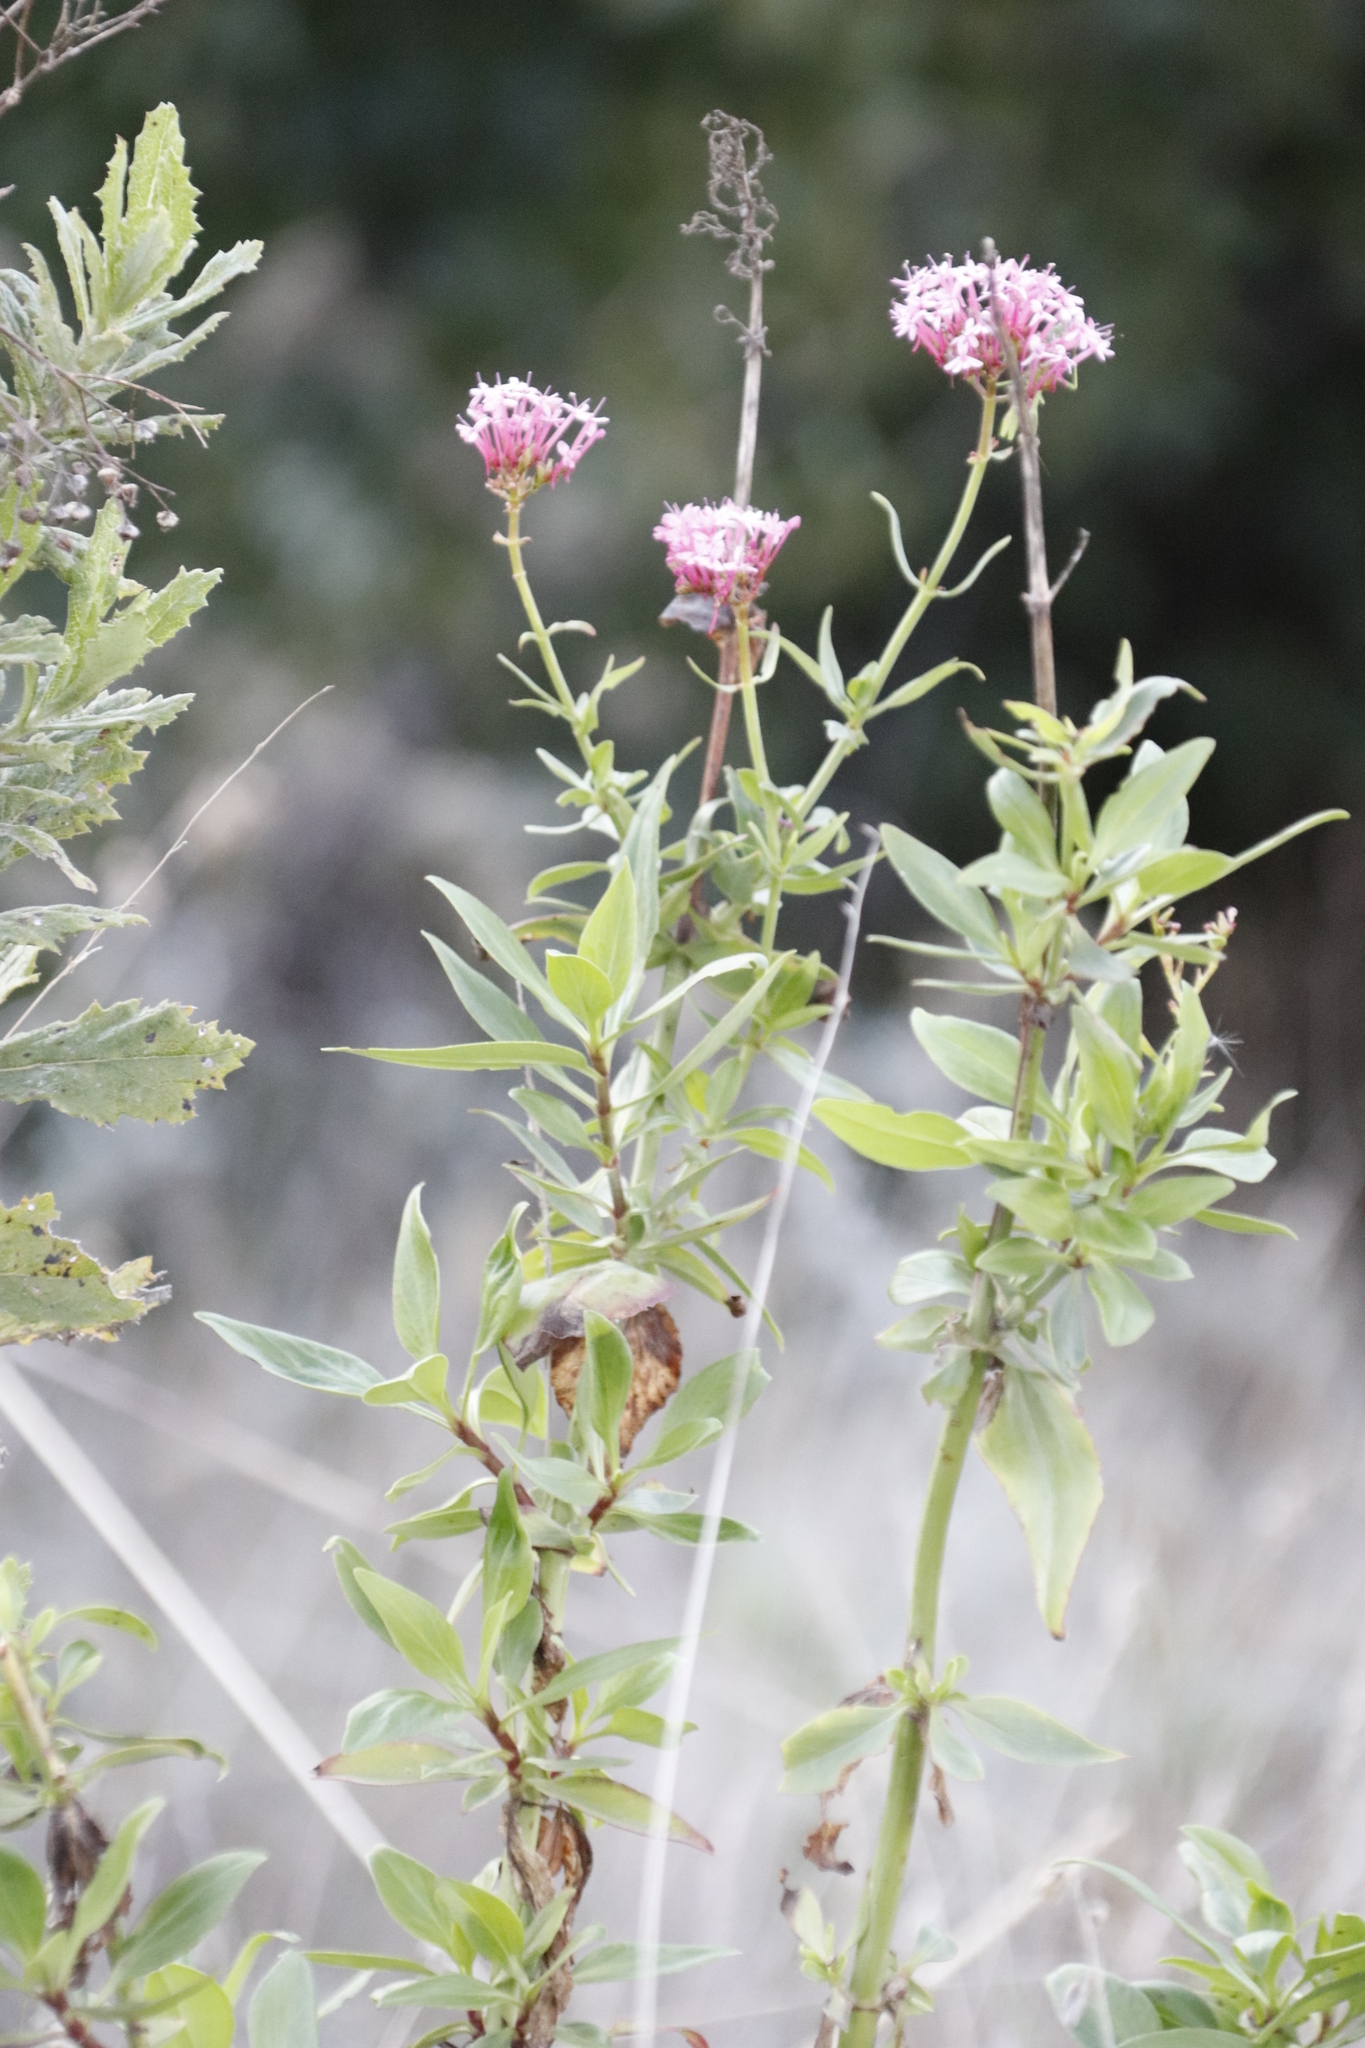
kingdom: Plantae
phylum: Tracheophyta
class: Magnoliopsida
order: Dipsacales
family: Caprifoliaceae
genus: Centranthus
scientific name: Centranthus ruber
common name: Red valerian
